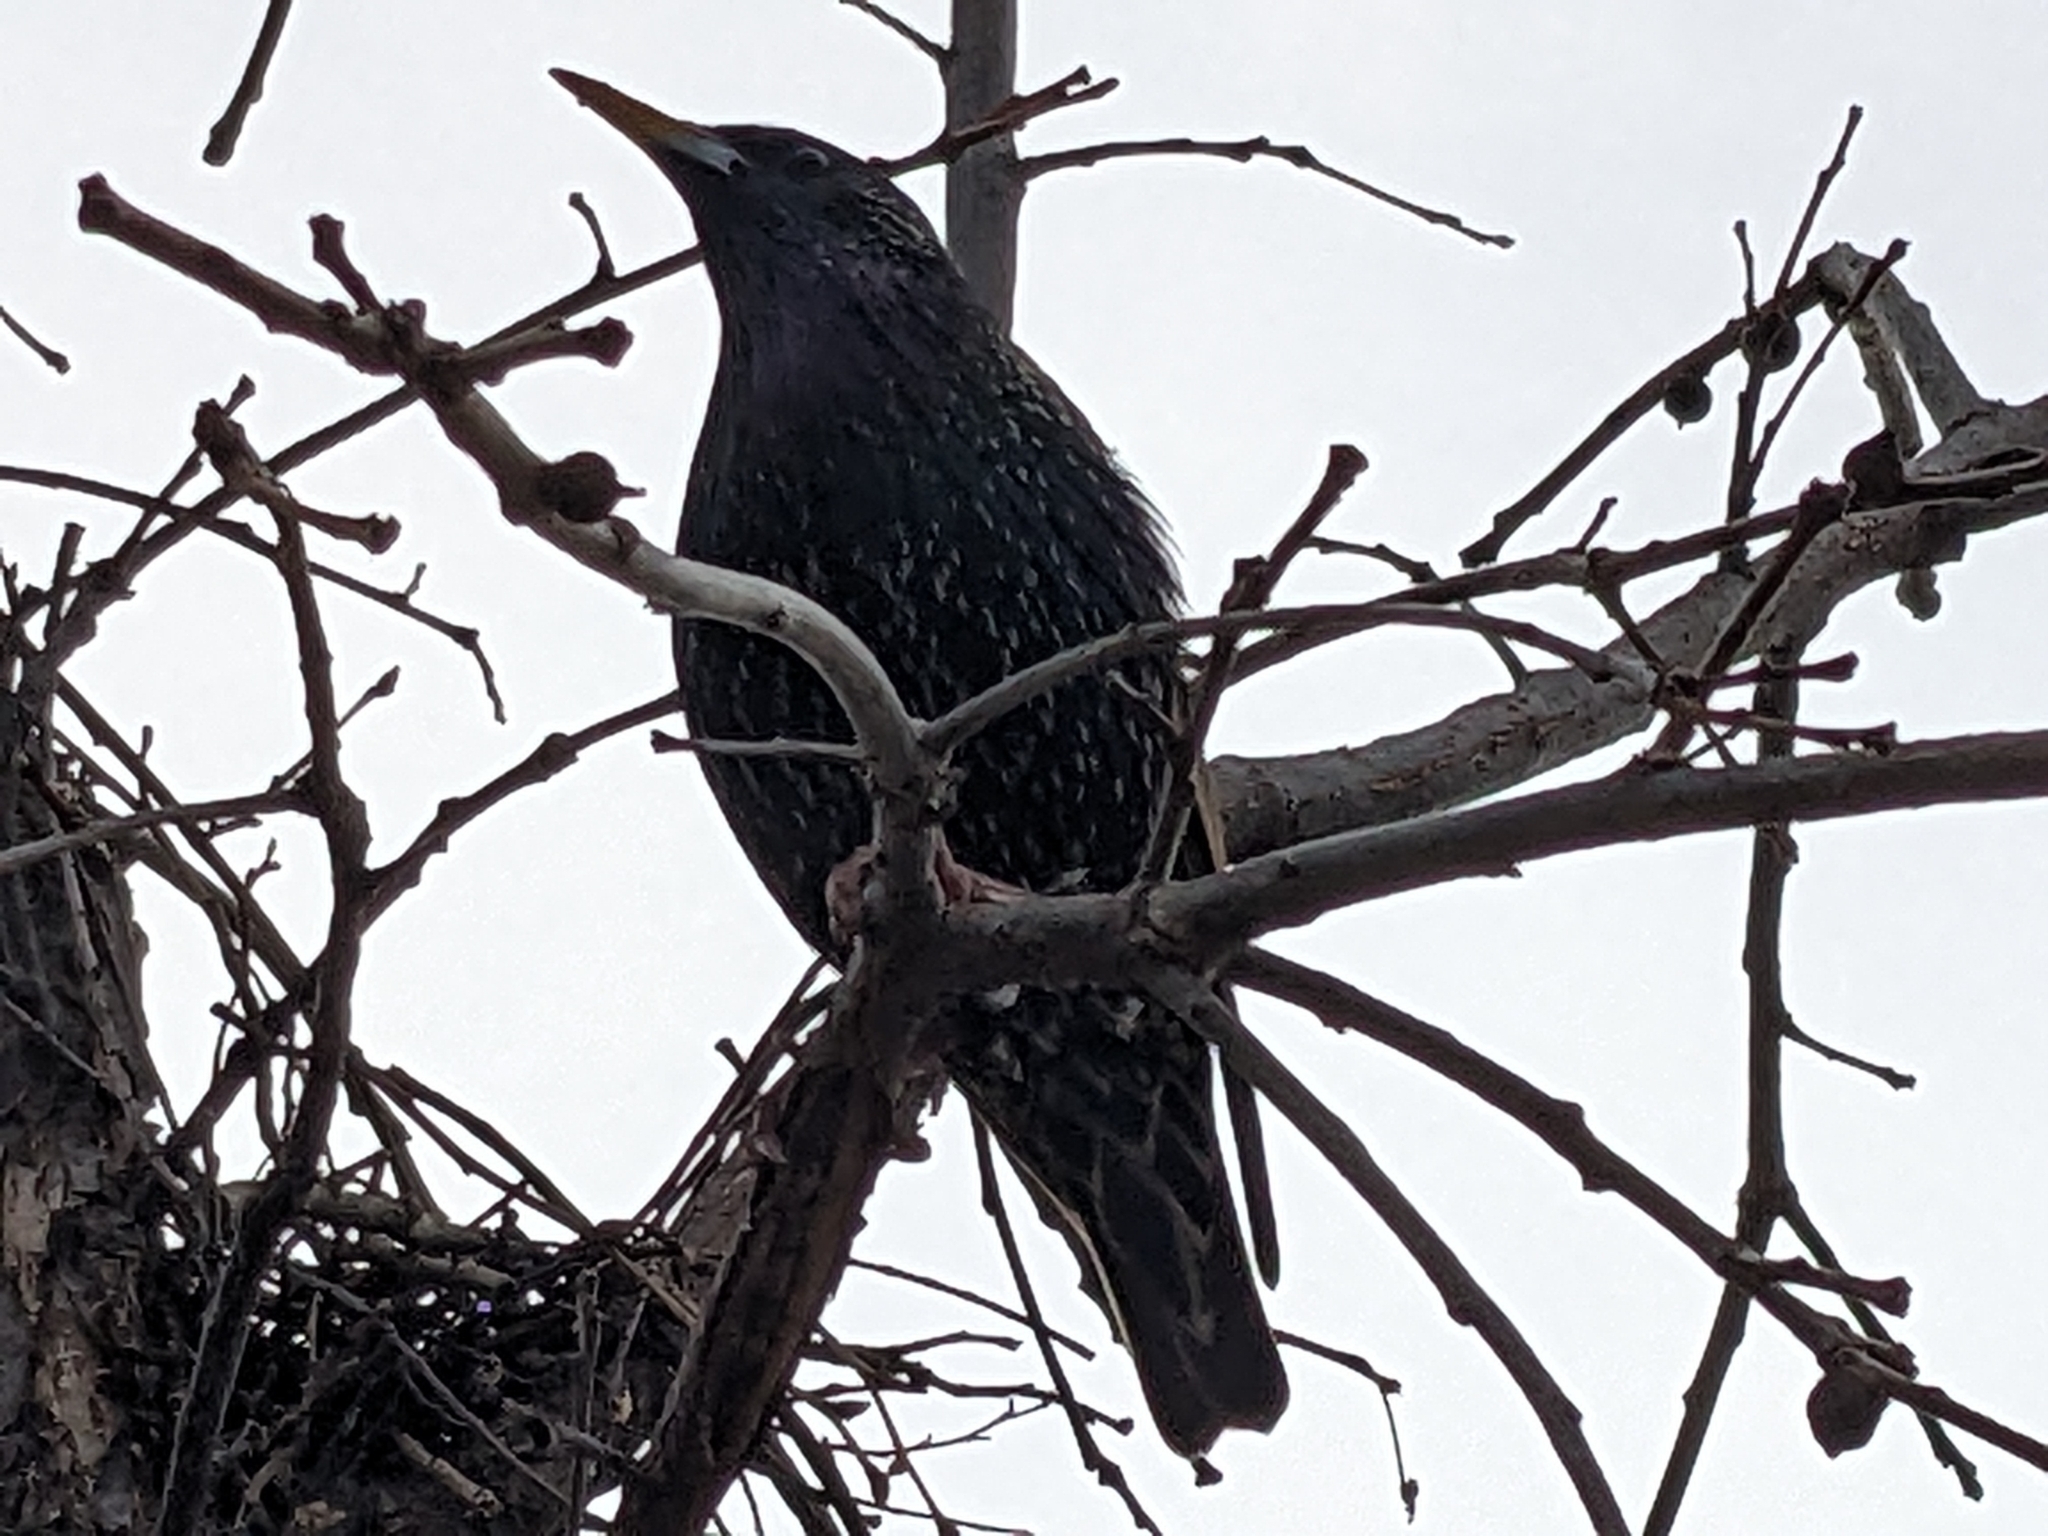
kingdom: Animalia
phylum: Chordata
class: Aves
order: Passeriformes
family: Sturnidae
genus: Sturnus
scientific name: Sturnus vulgaris
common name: Common starling
